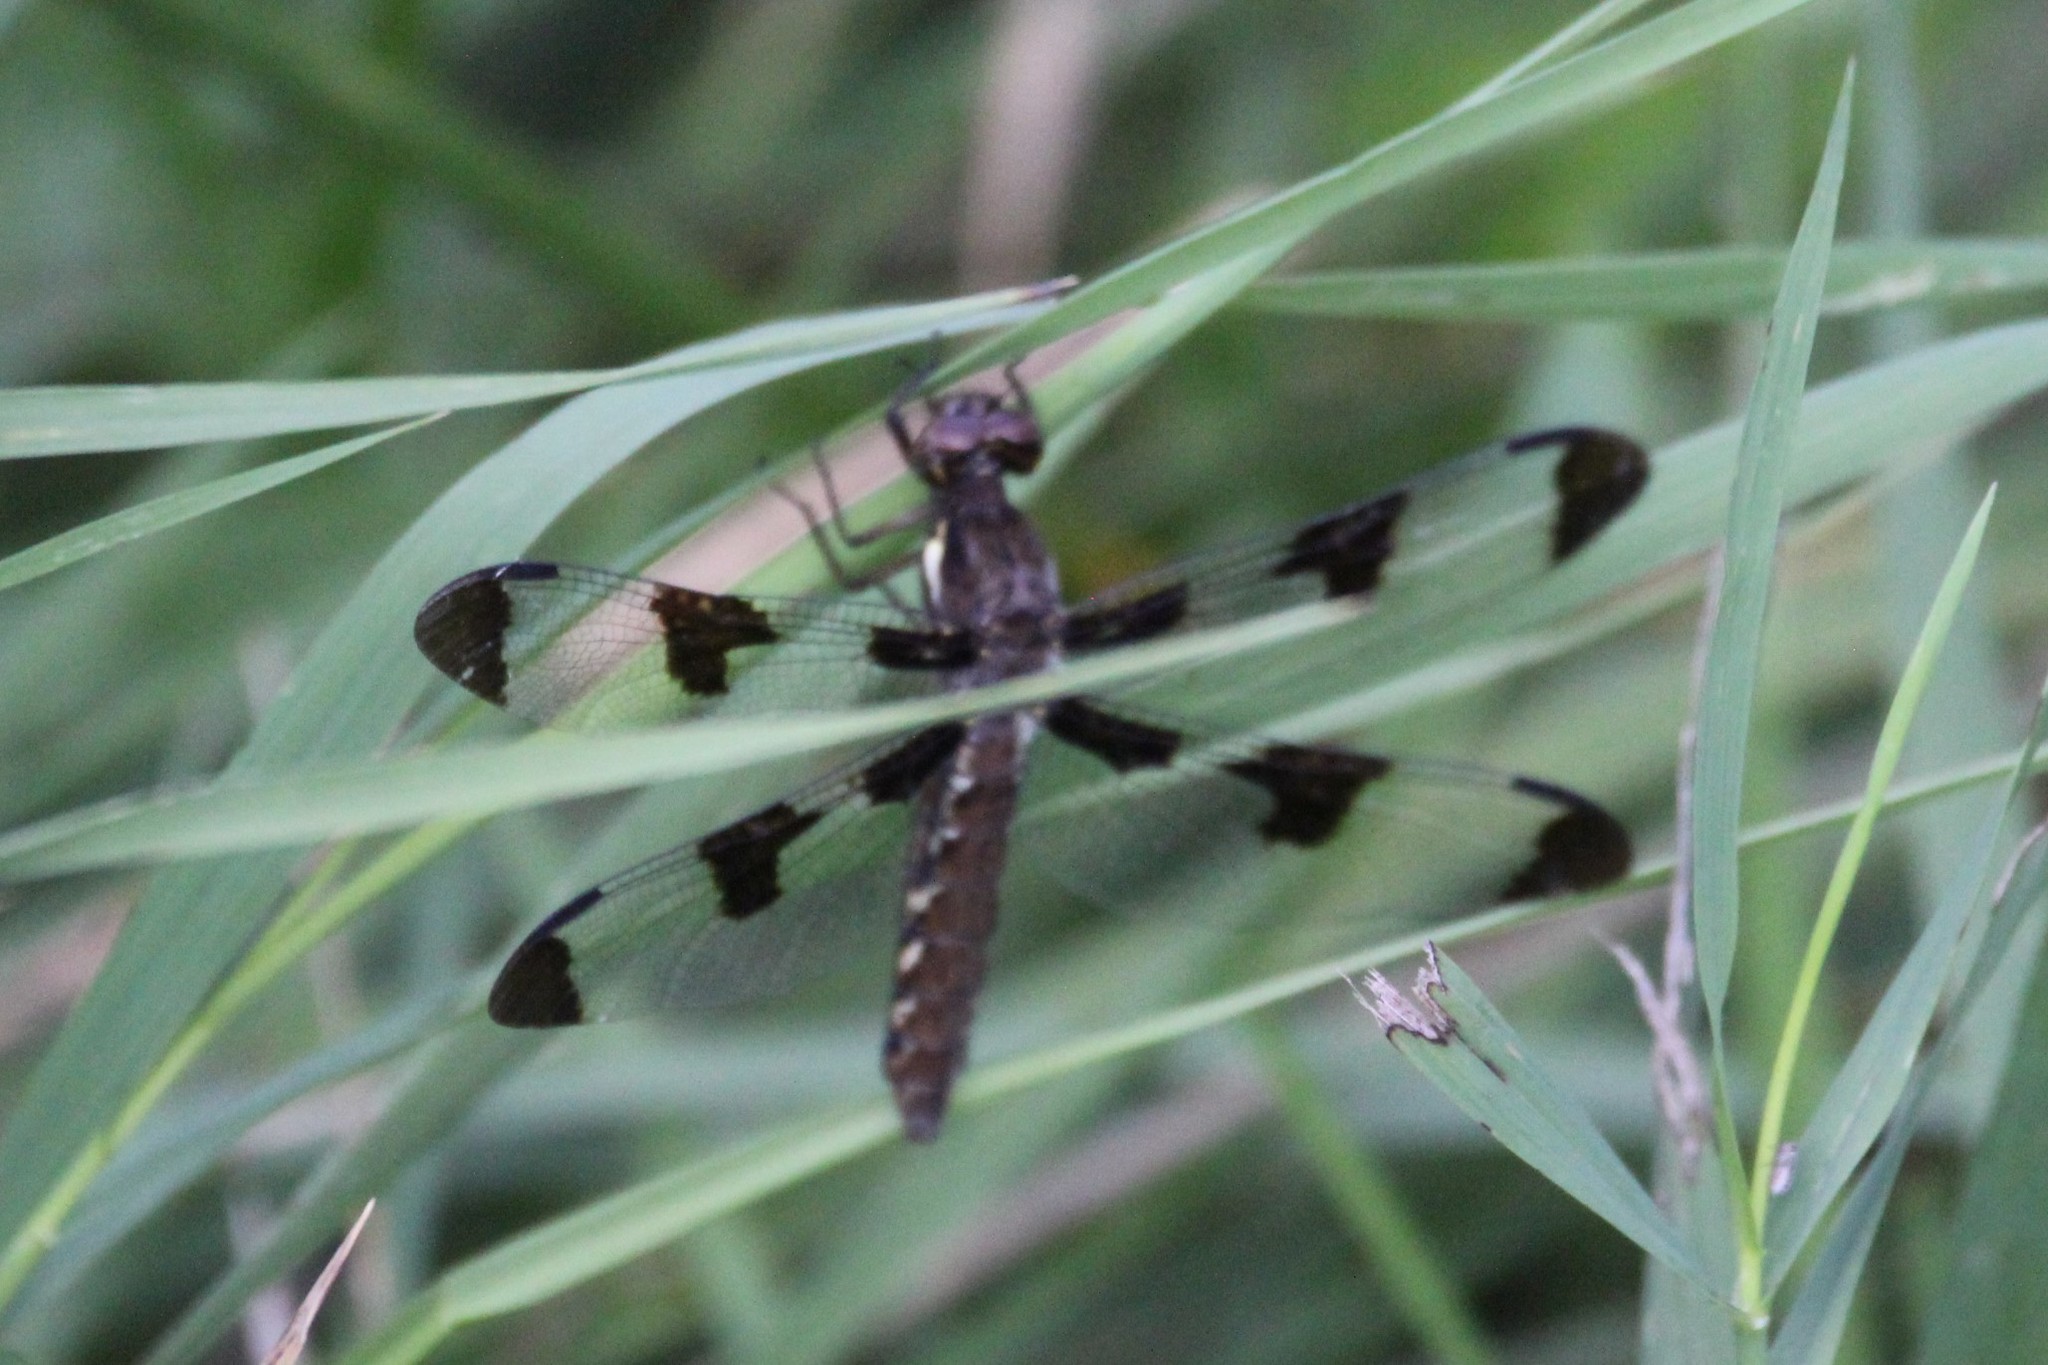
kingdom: Animalia
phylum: Arthropoda
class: Insecta
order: Odonata
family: Libellulidae
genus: Plathemis
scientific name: Plathemis lydia
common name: Common whitetail
